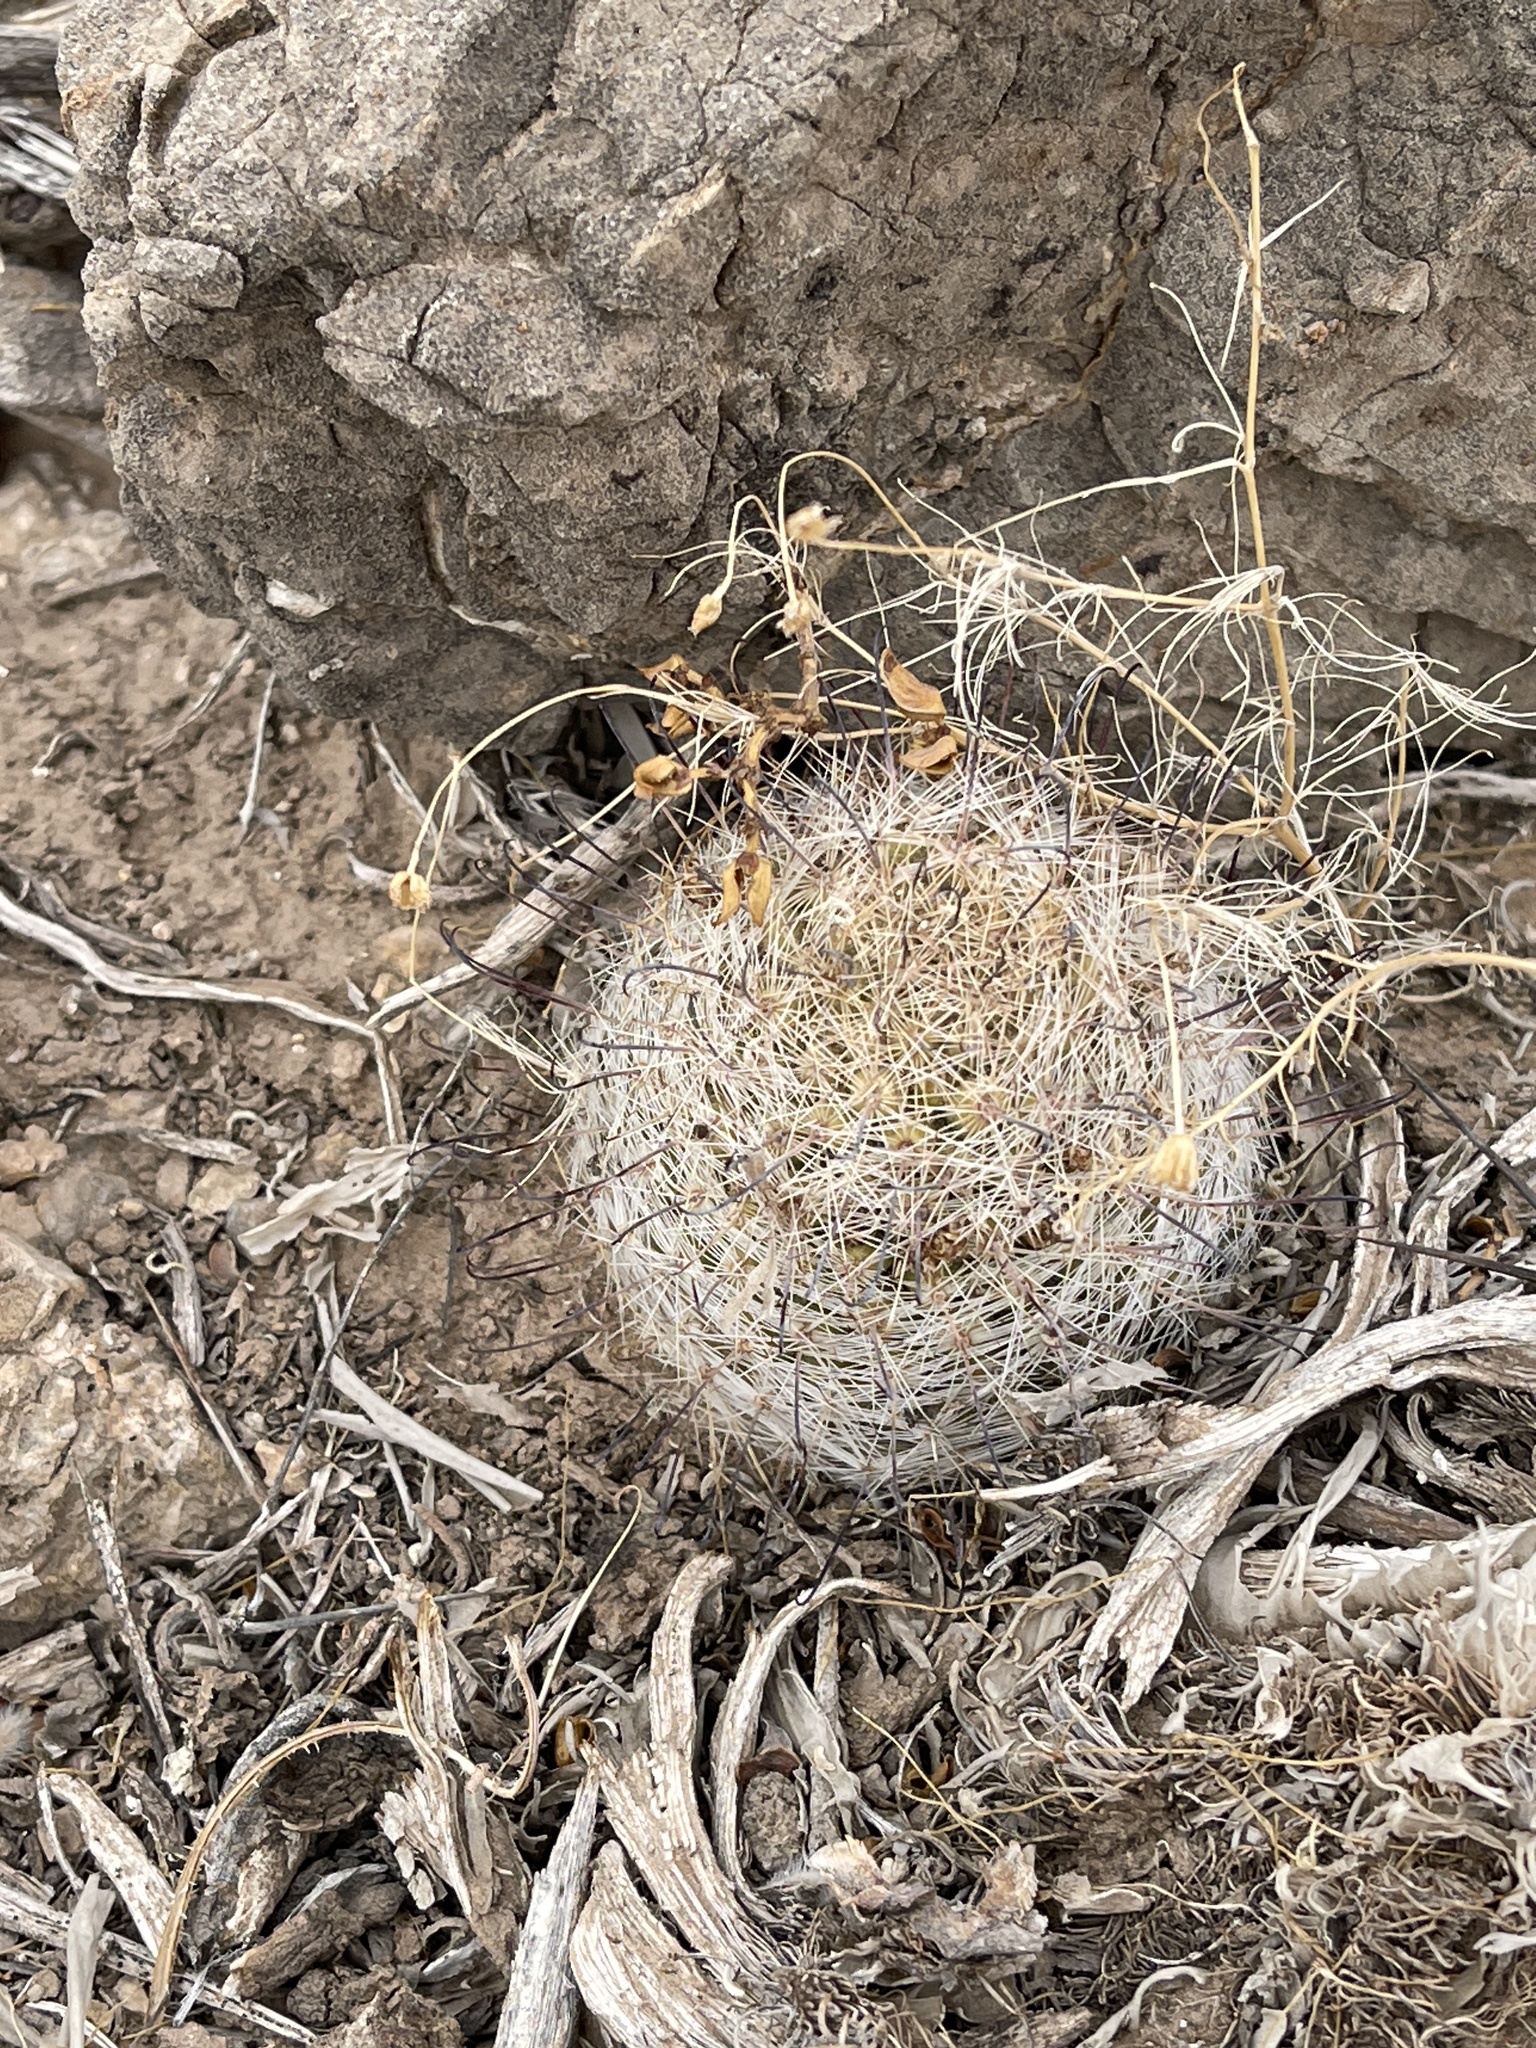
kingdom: Plantae
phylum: Tracheophyta
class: Magnoliopsida
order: Caryophyllales
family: Cactaceae
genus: Cochemiea
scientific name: Cochemiea grahamii
